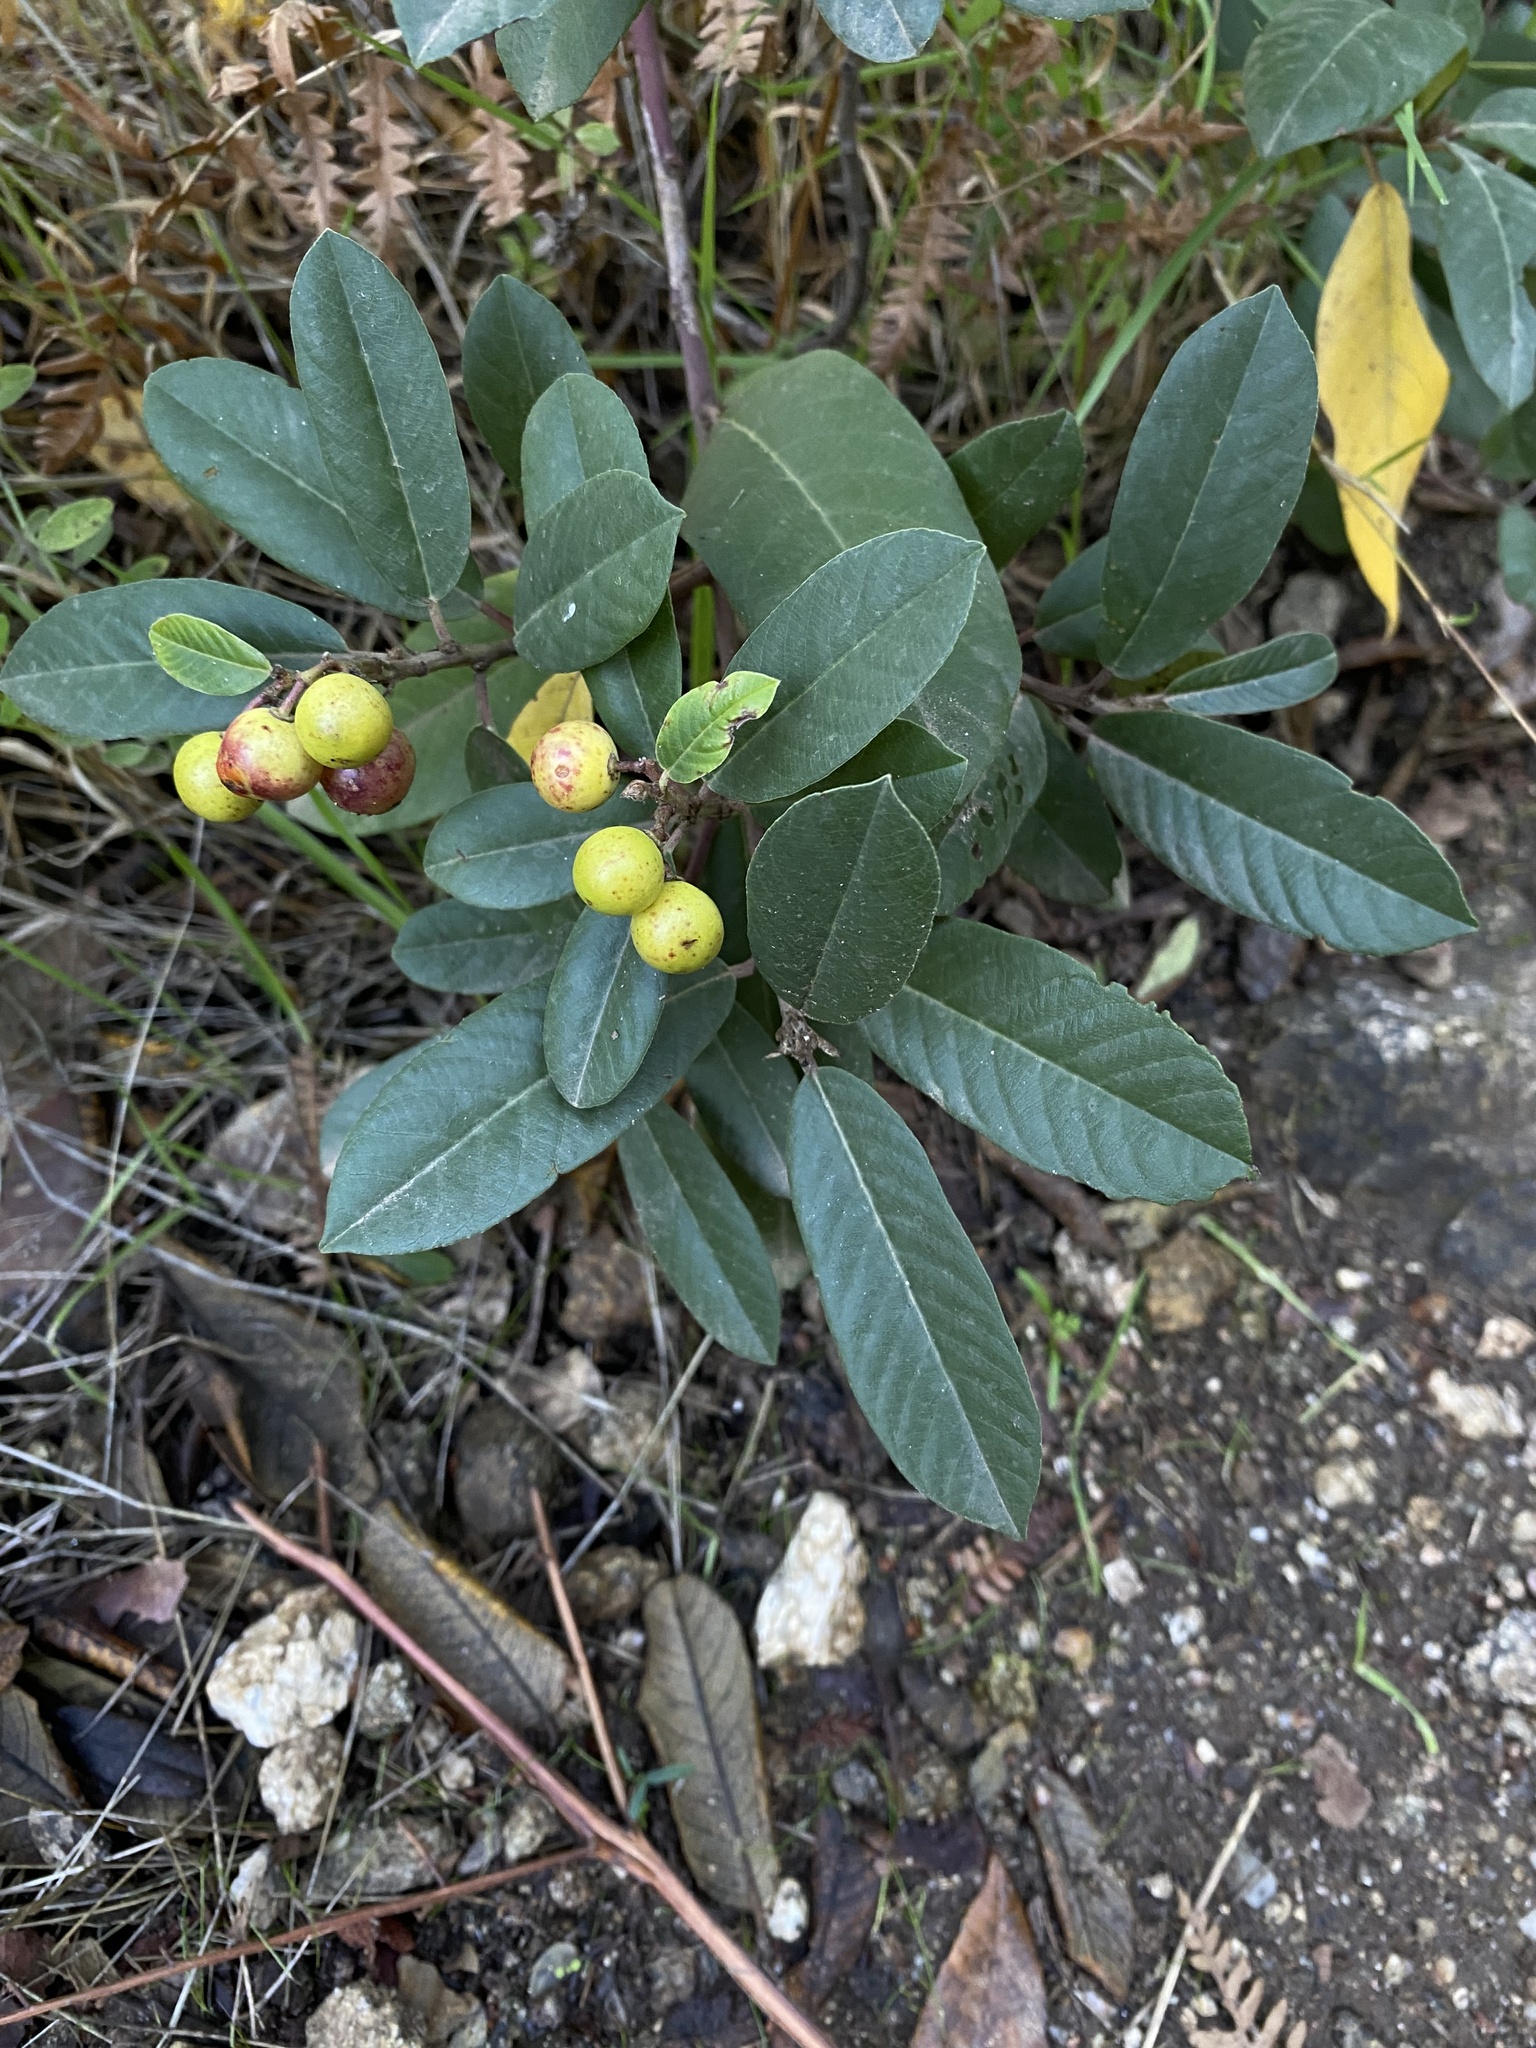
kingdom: Plantae
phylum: Tracheophyta
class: Magnoliopsida
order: Rosales
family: Rhamnaceae
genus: Frangula
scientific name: Frangula californica
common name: California buckthorn
